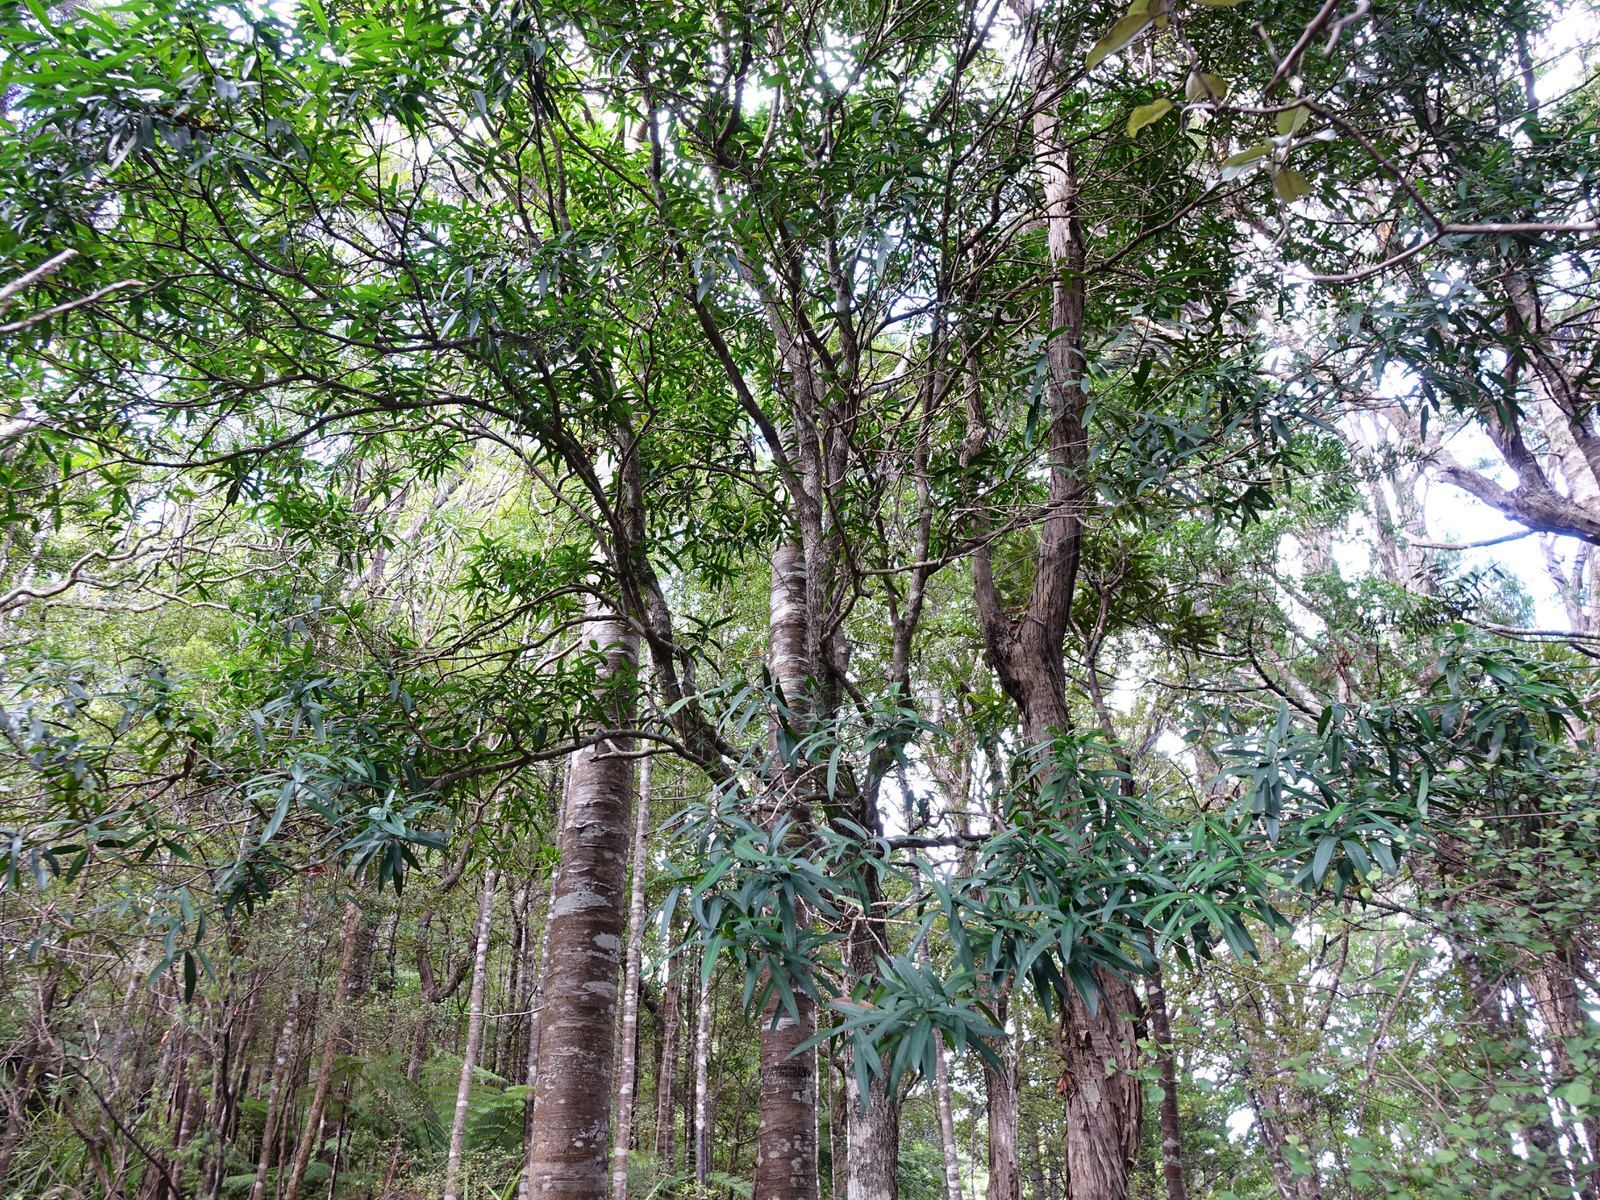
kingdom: Plantae
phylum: Tracheophyta
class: Magnoliopsida
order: Lamiales
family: Oleaceae
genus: Nestegis
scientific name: Nestegis lanceolata
